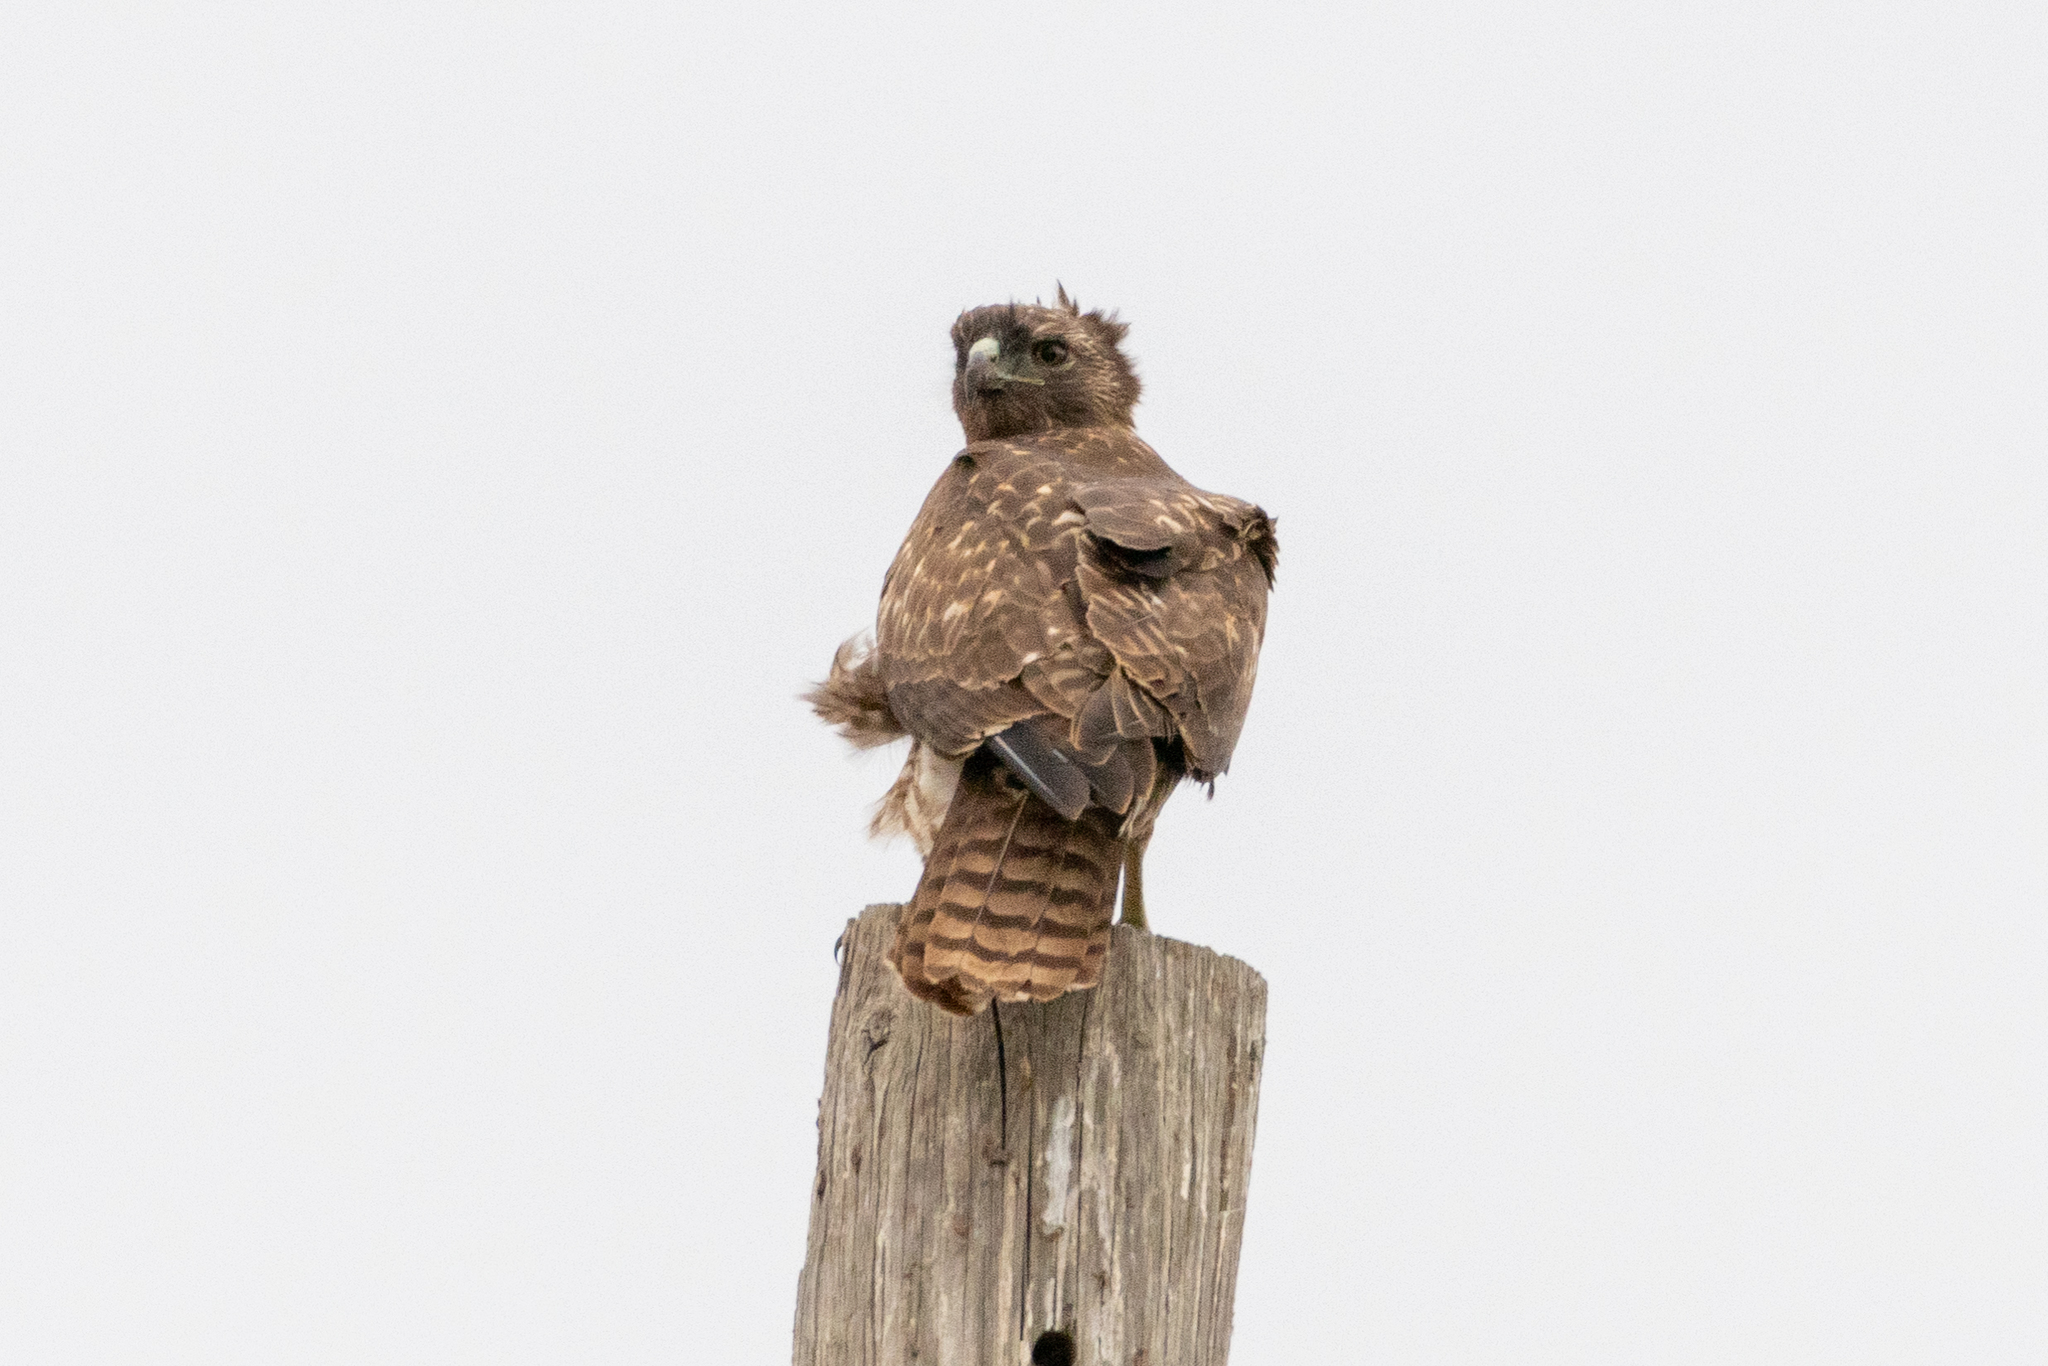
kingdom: Animalia
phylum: Chordata
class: Aves
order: Accipitriformes
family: Accipitridae
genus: Buteo
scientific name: Buteo jamaicensis
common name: Red-tailed hawk
